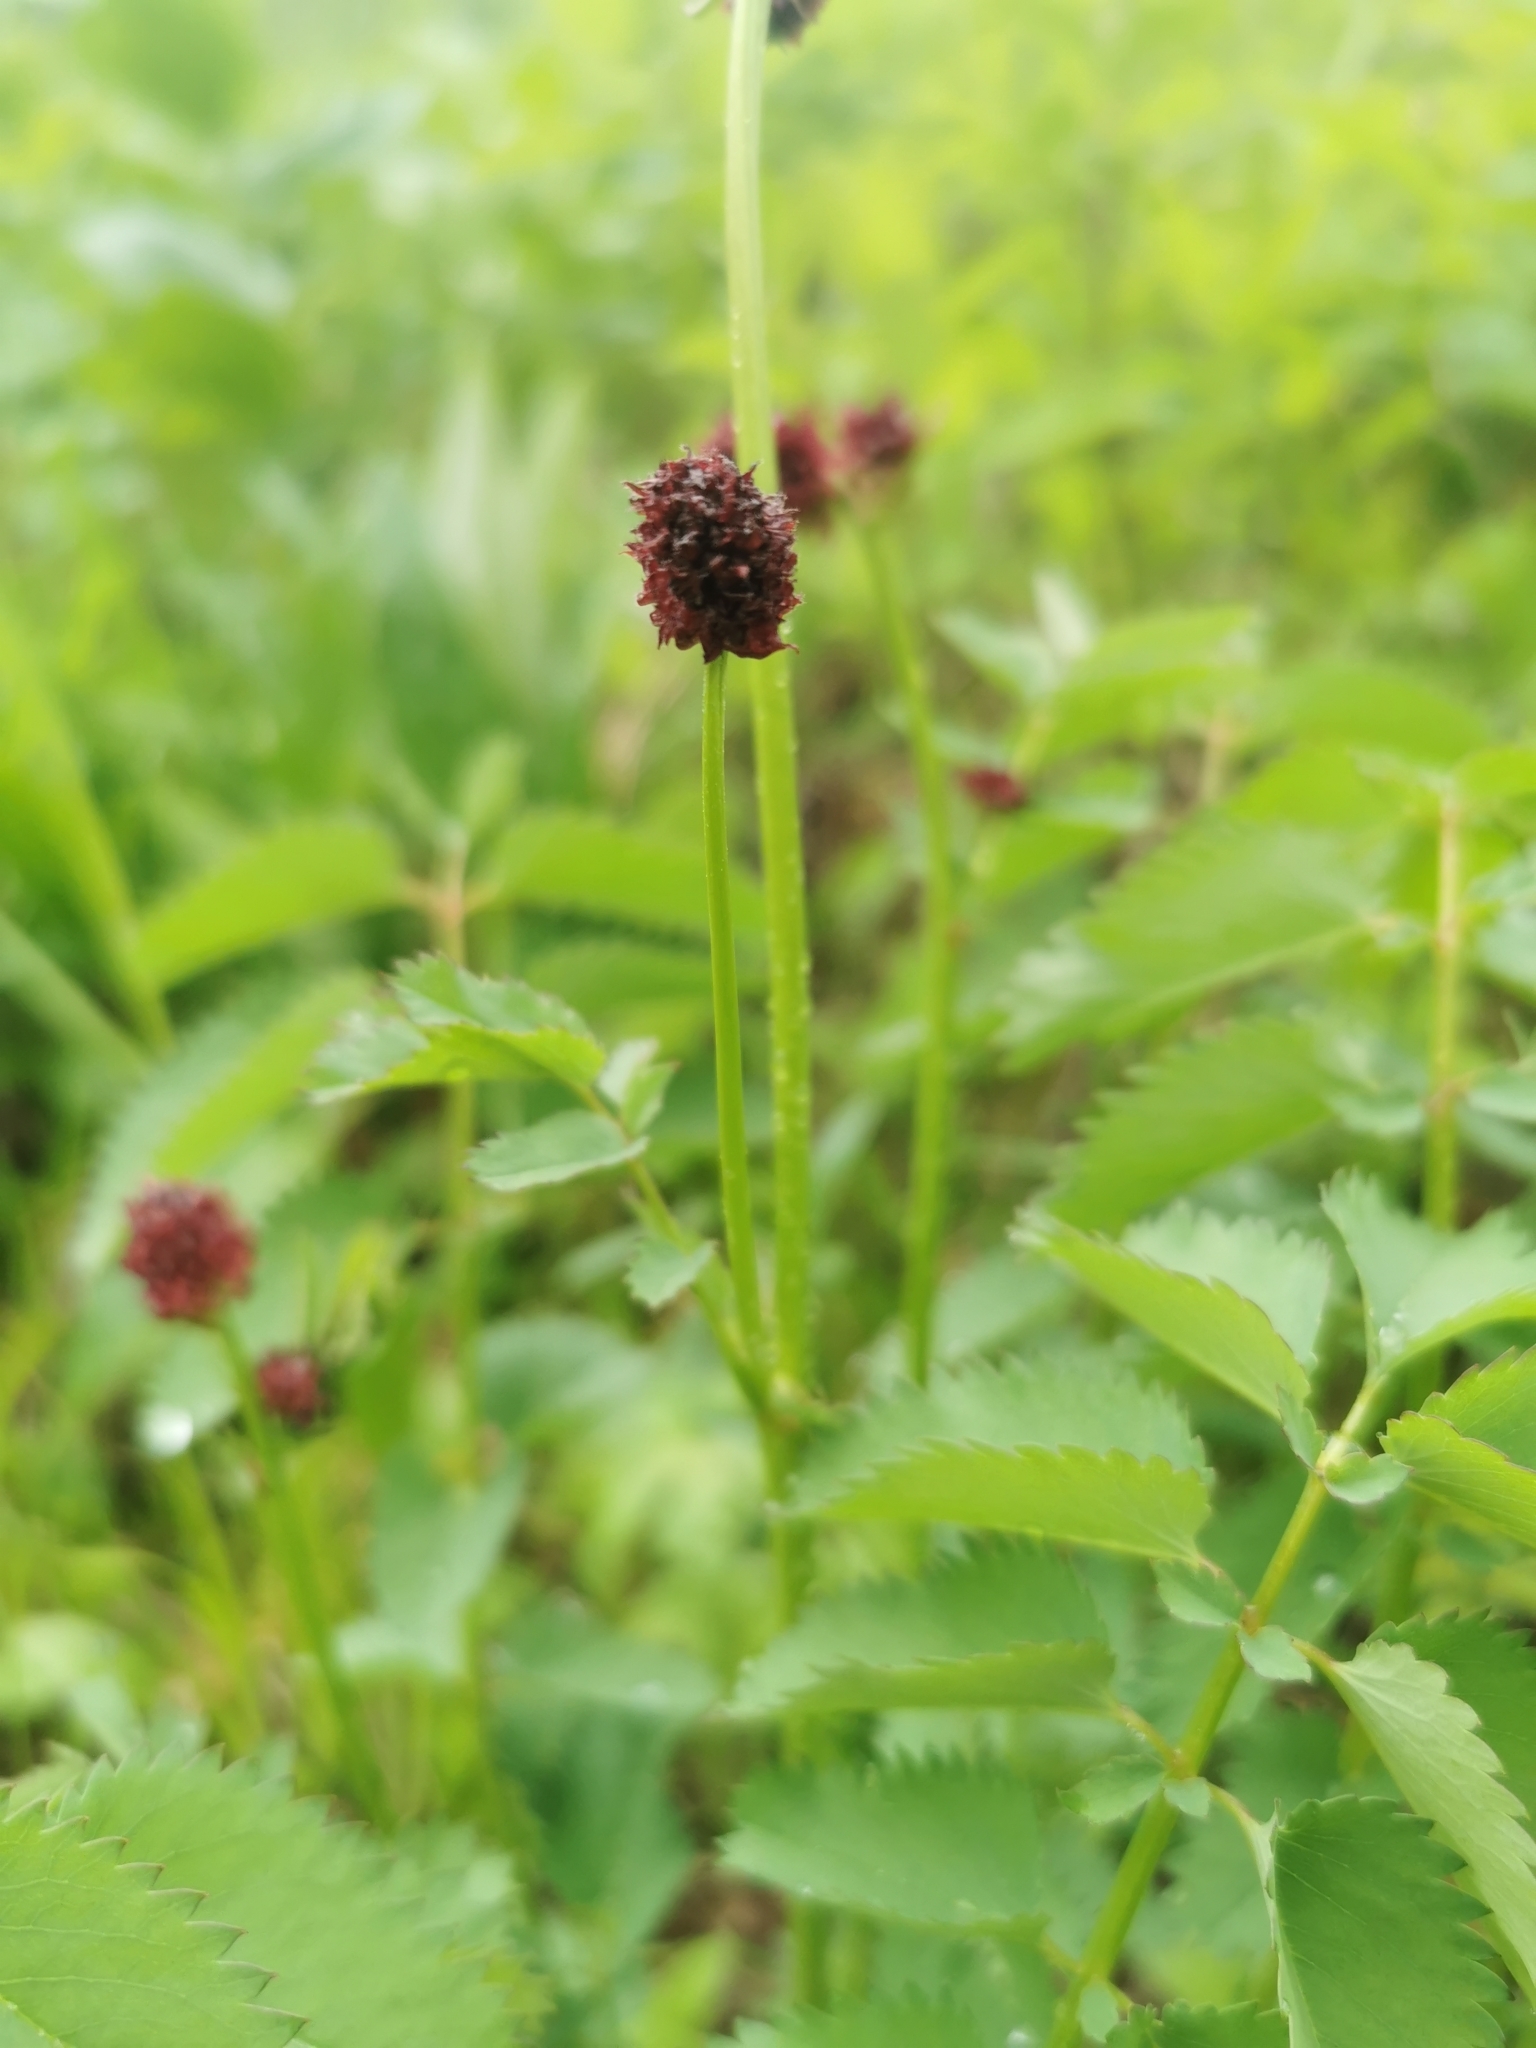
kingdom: Plantae
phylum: Tracheophyta
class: Magnoliopsida
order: Rosales
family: Rosaceae
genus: Sanguisorba
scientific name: Sanguisorba officinalis
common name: Great burnet
